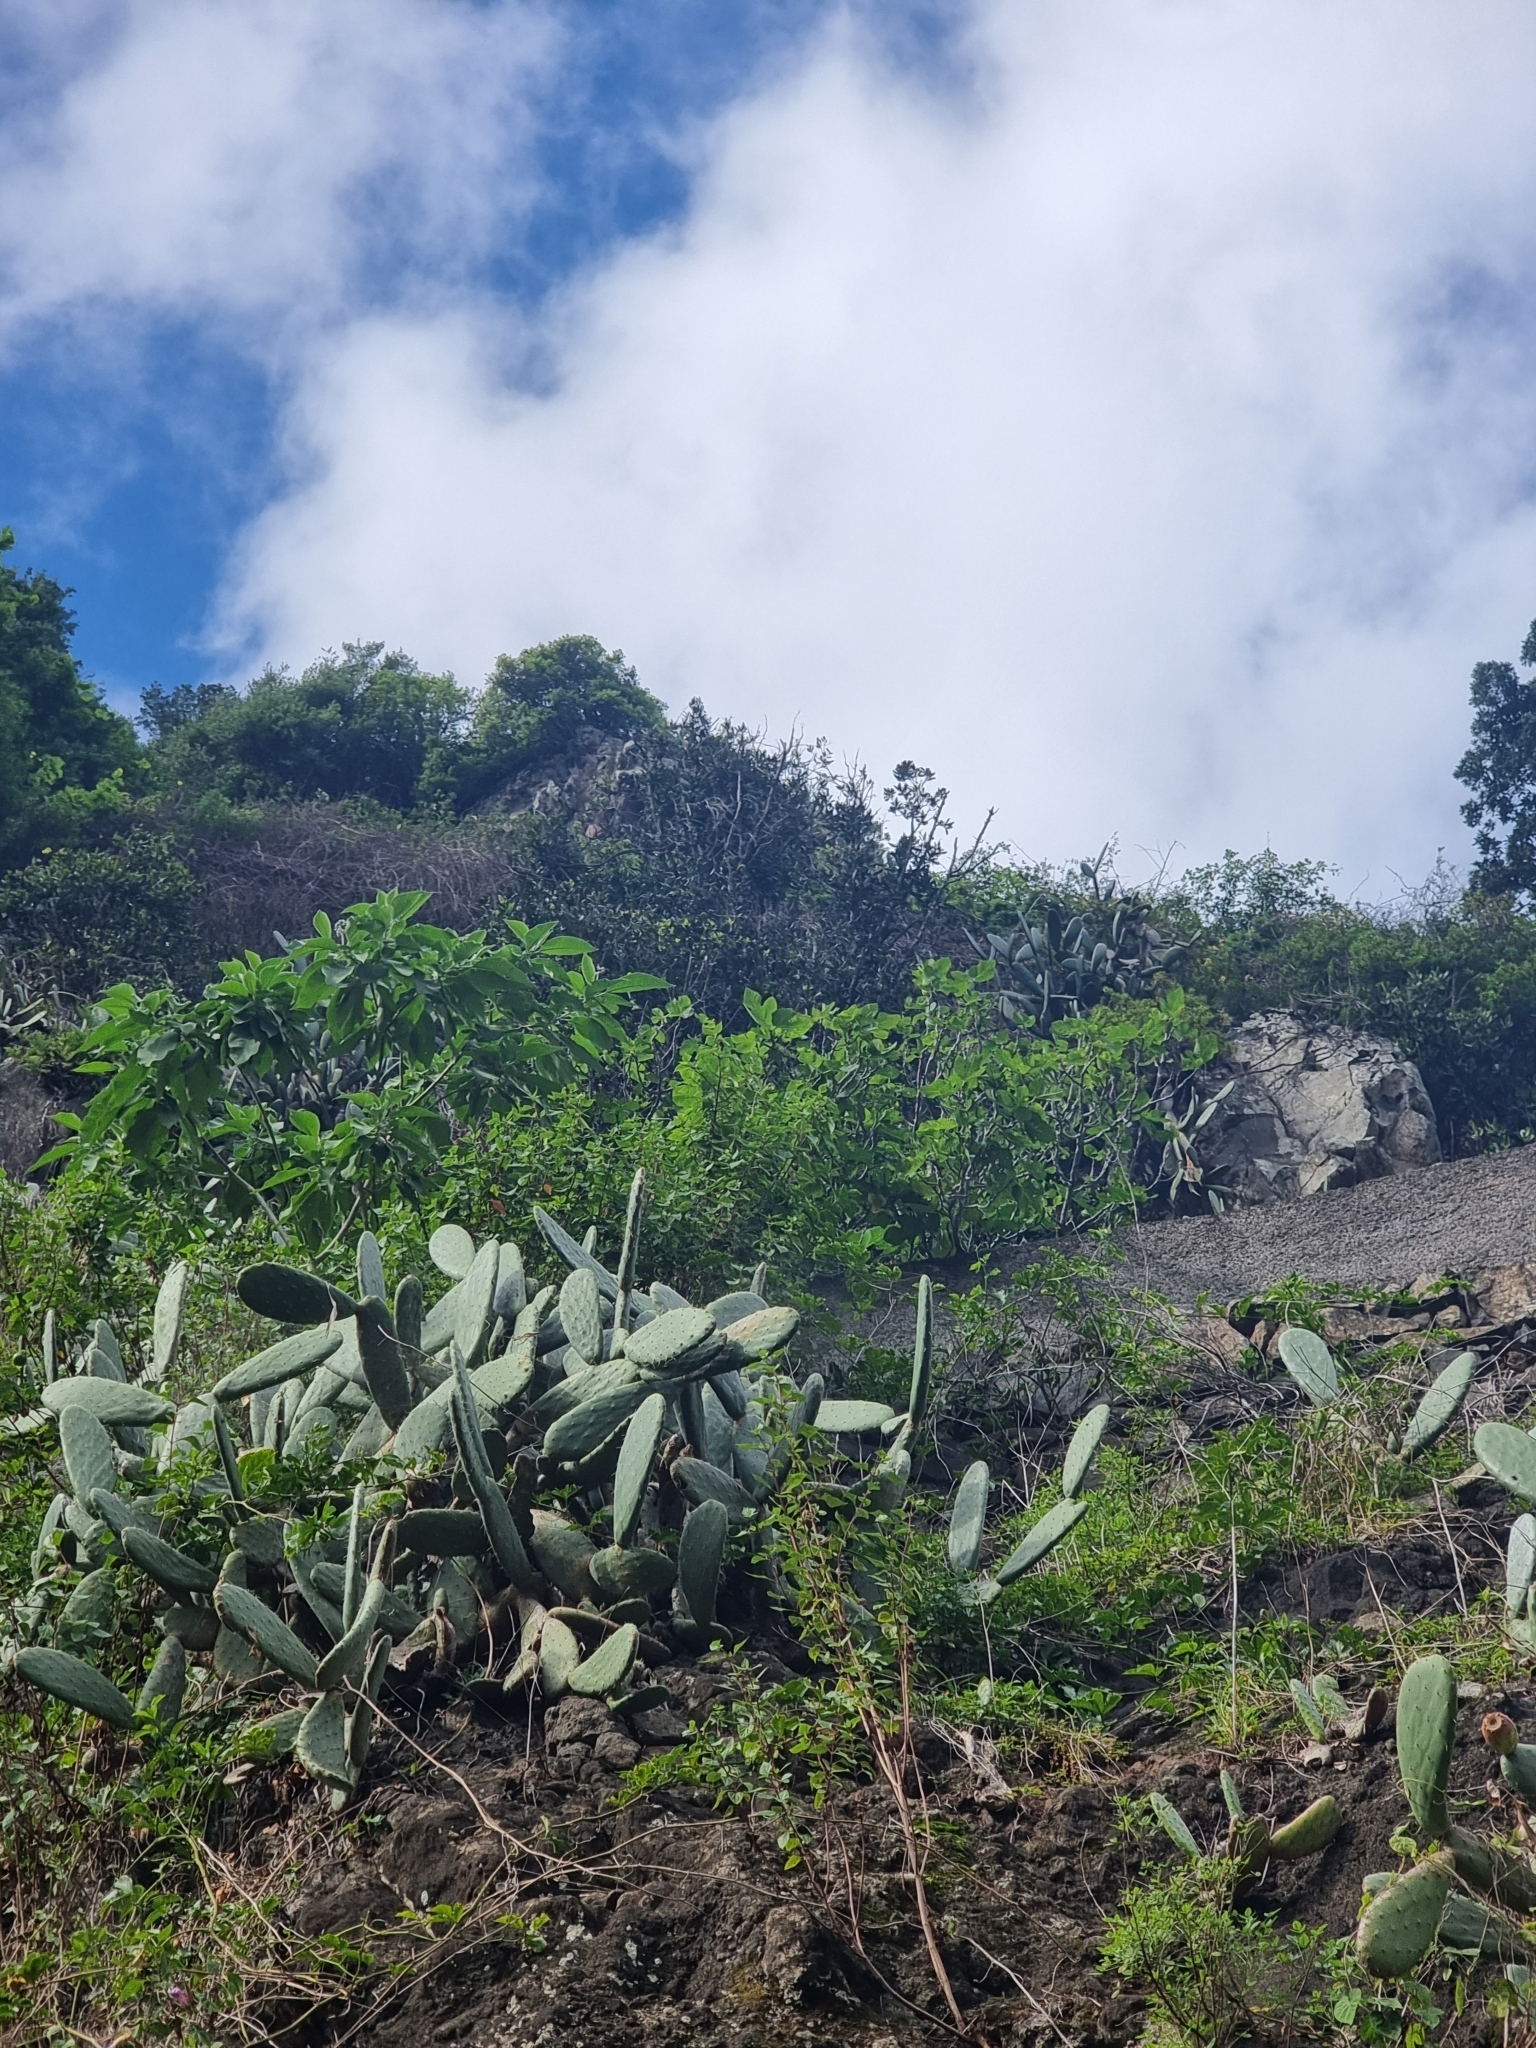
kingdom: Plantae
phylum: Tracheophyta
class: Magnoliopsida
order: Caryophyllales
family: Cactaceae
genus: Opuntia
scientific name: Opuntia ficus-indica
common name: Barbary fig
